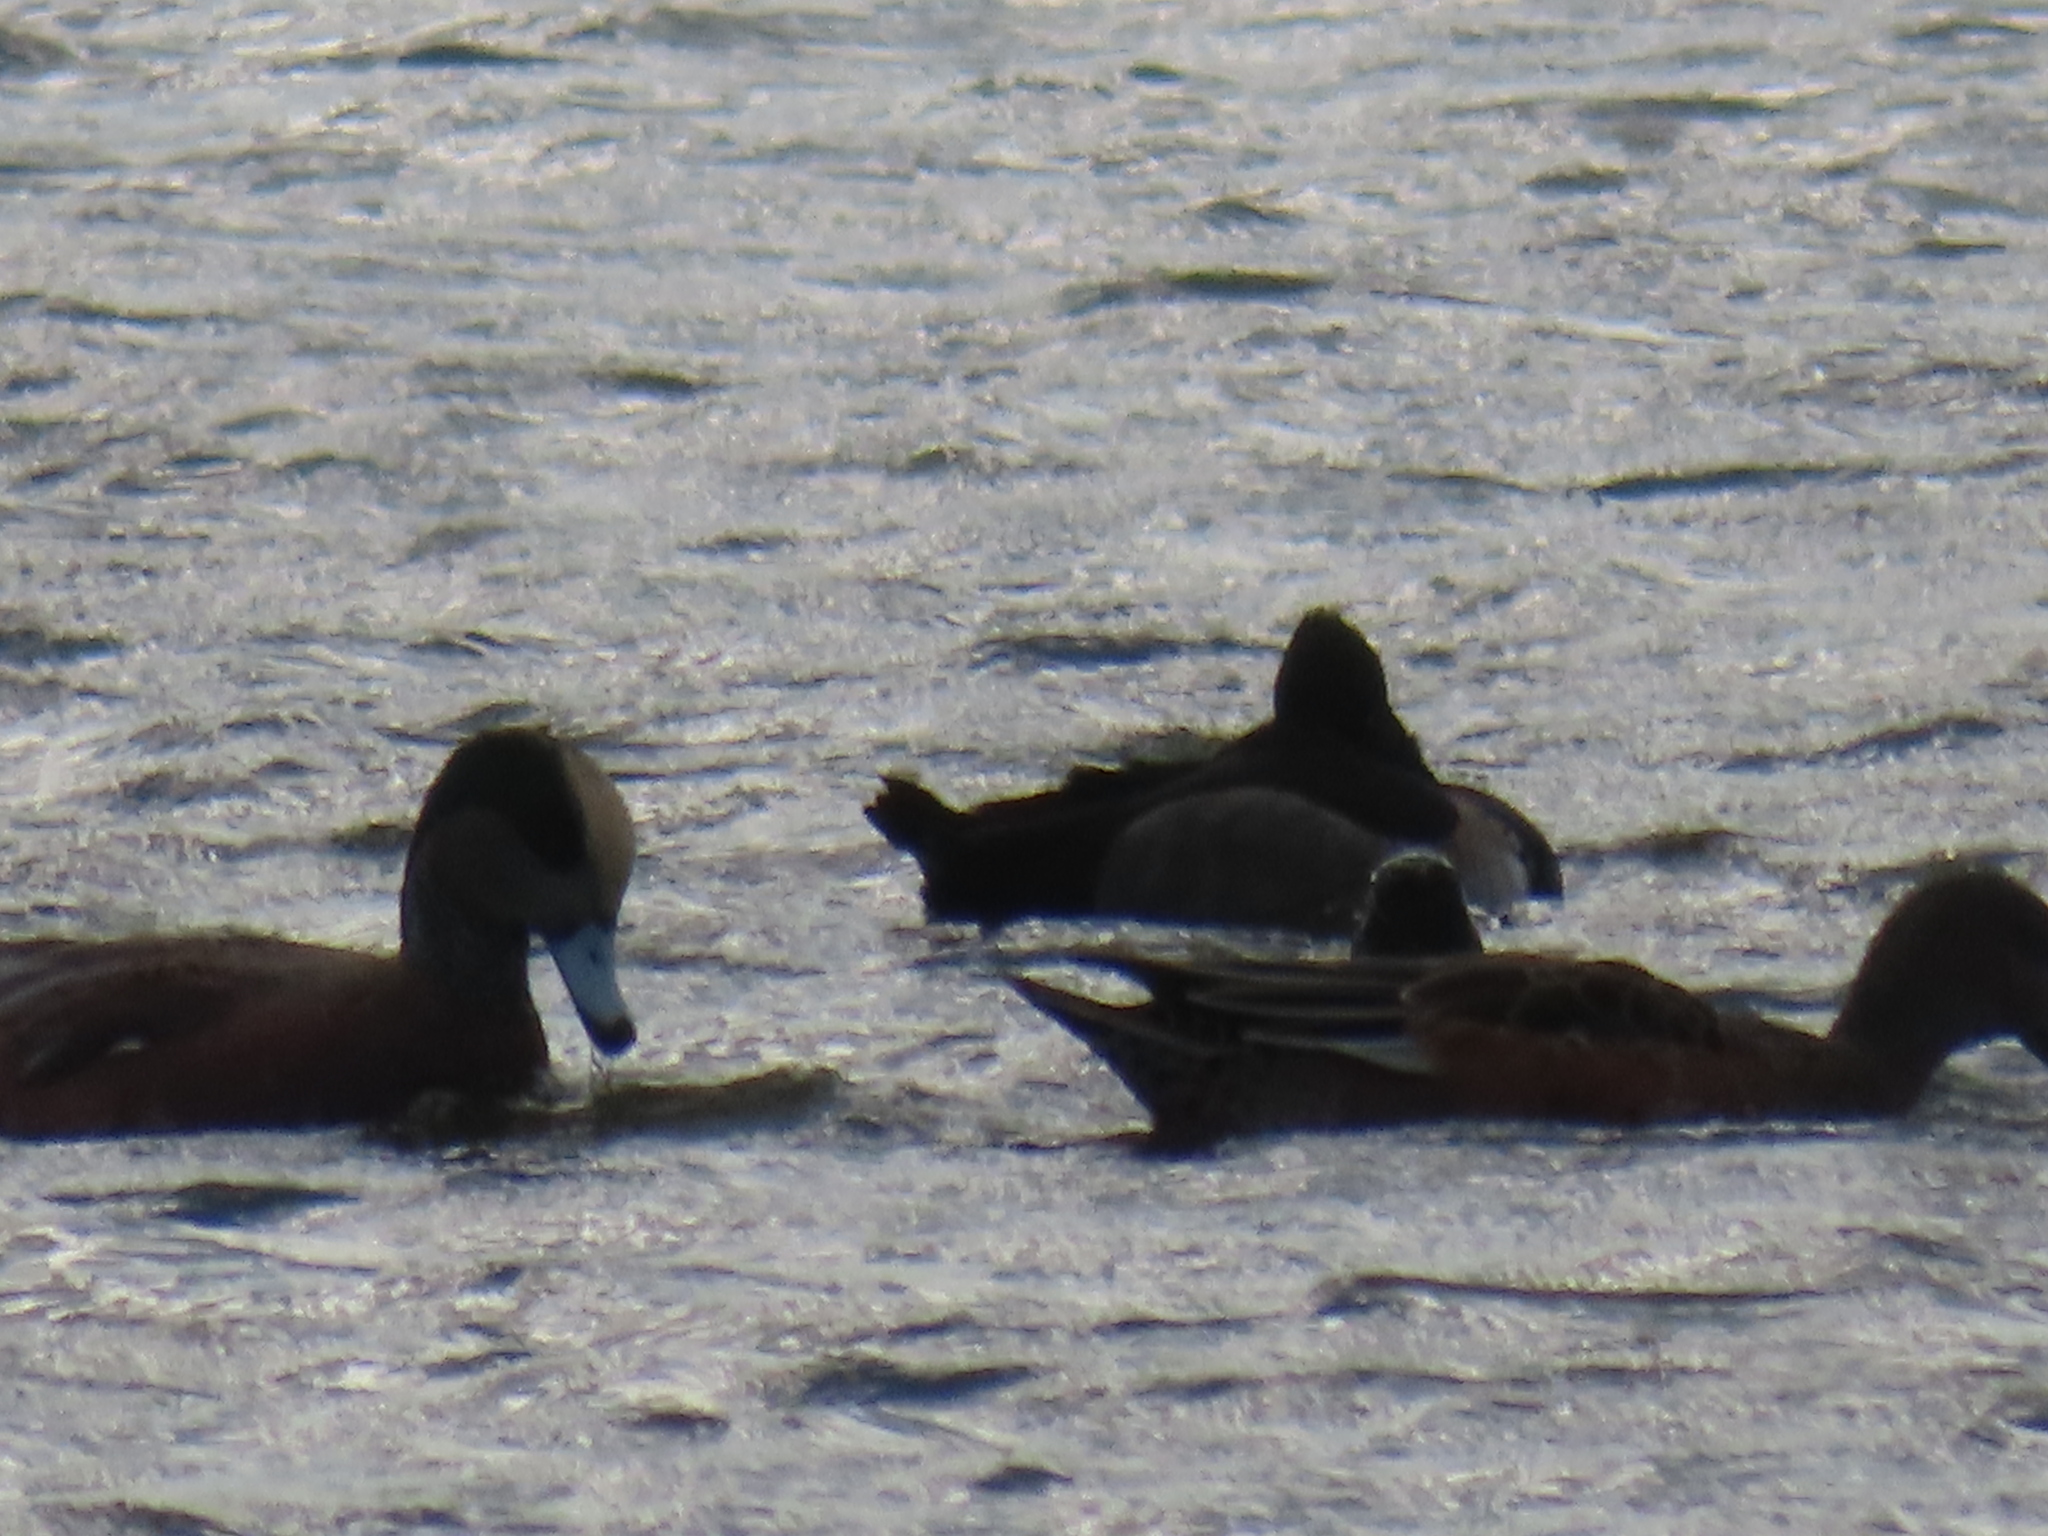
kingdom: Animalia
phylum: Chordata
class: Aves
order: Anseriformes
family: Anatidae
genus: Mareca
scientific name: Mareca americana
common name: American wigeon
